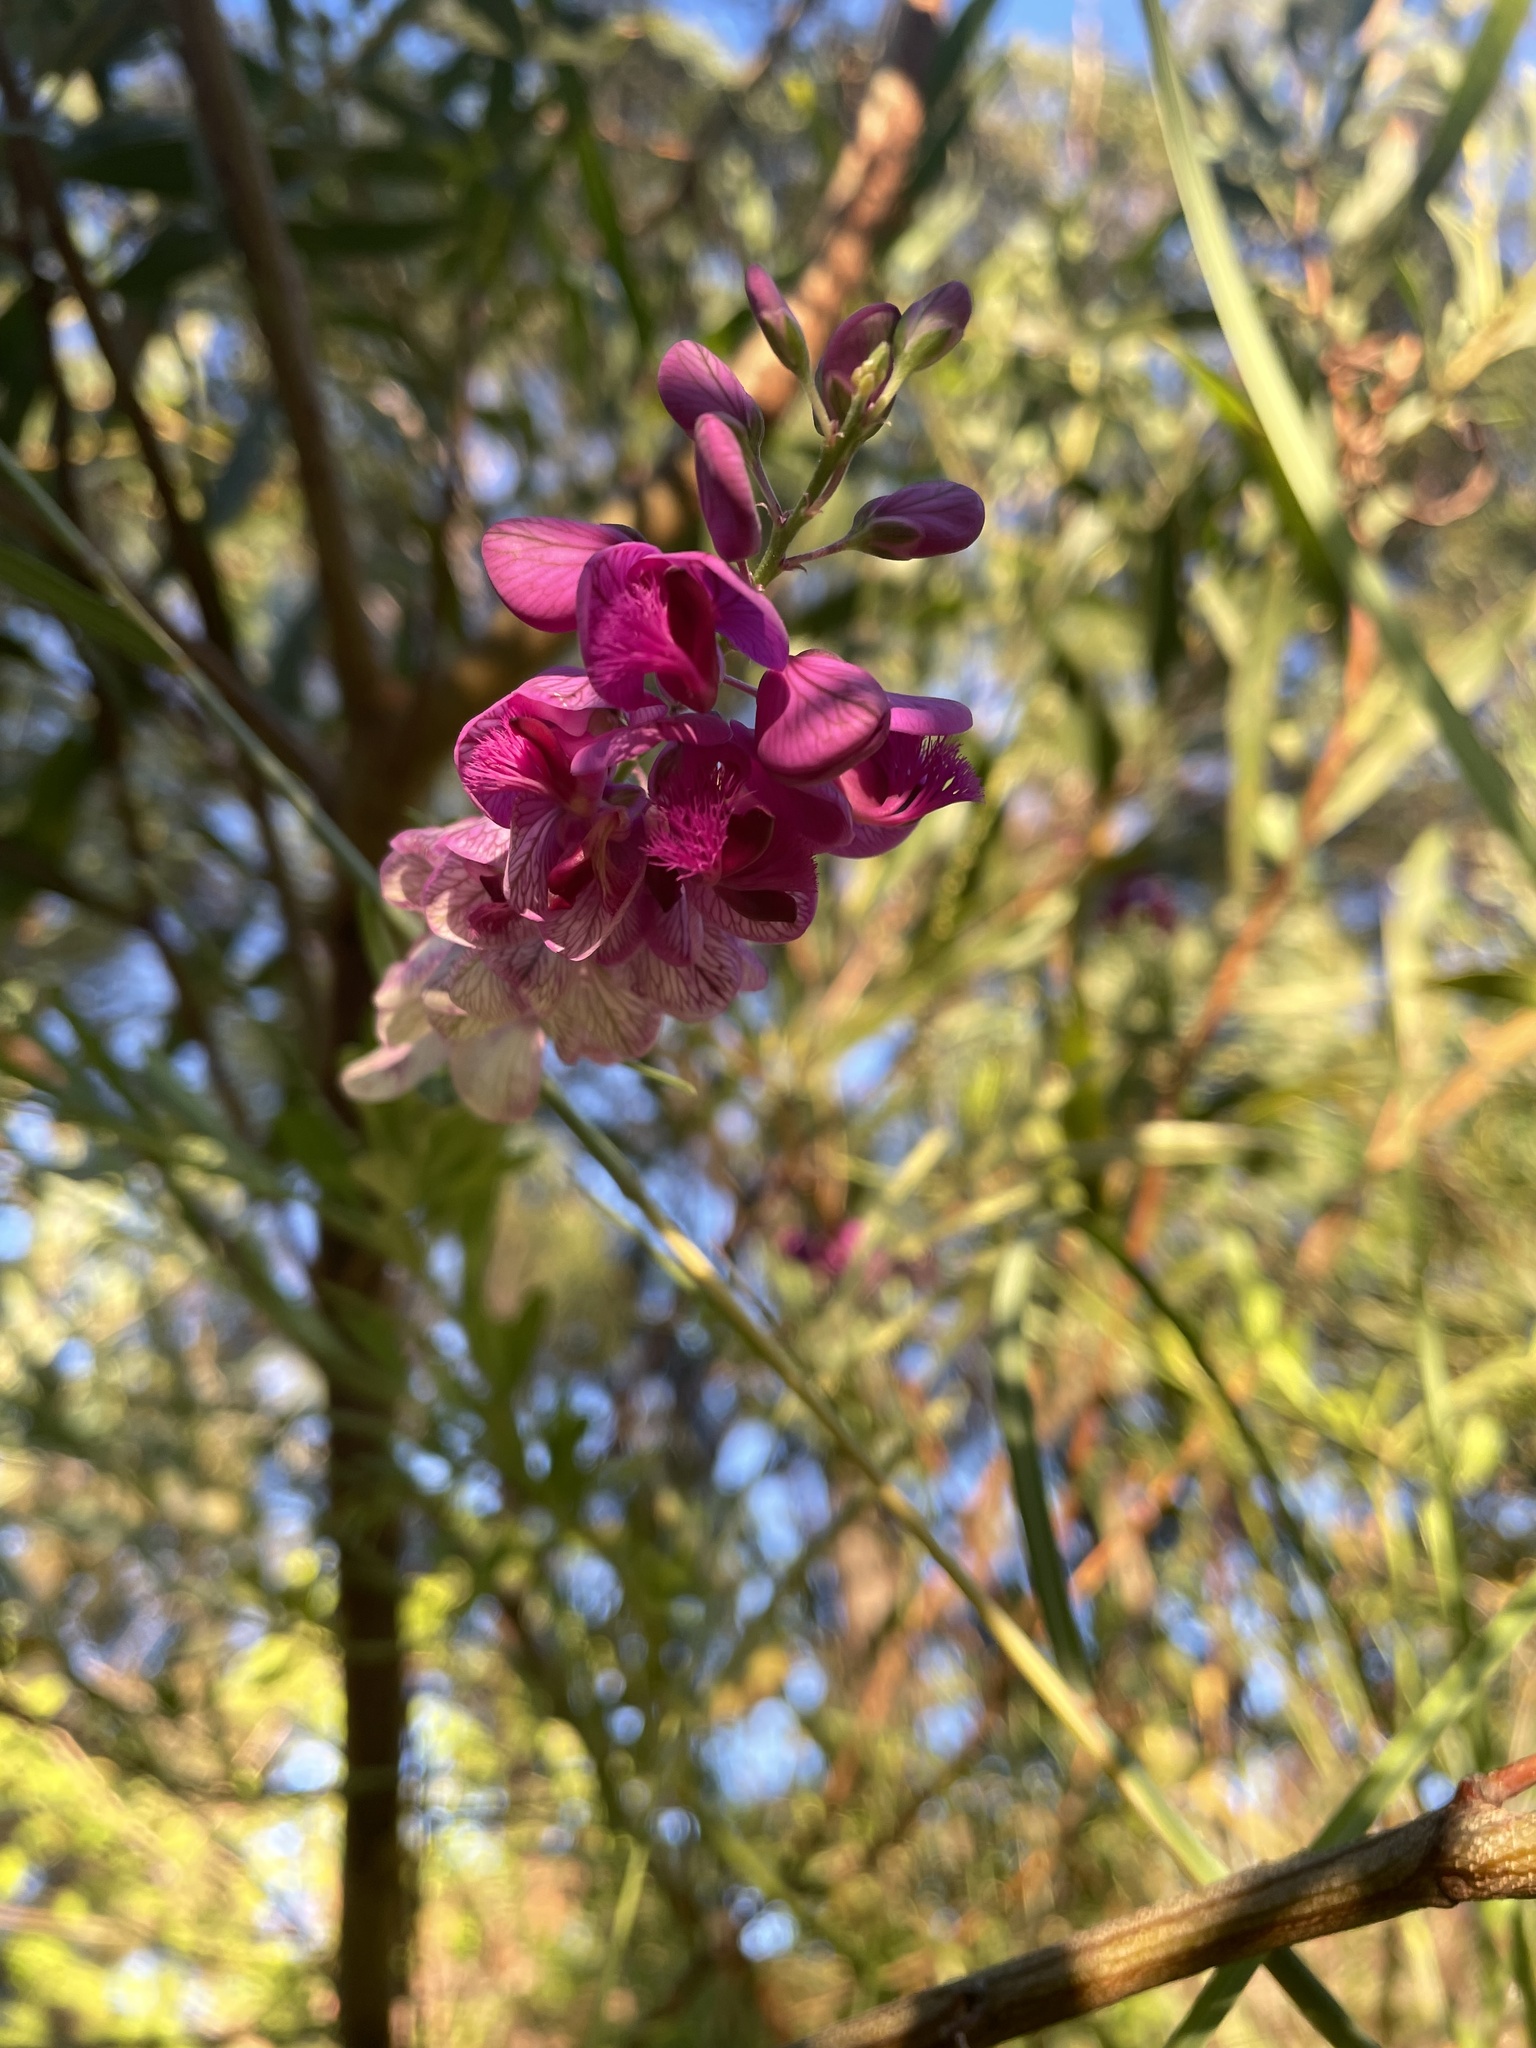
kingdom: Plantae
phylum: Tracheophyta
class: Magnoliopsida
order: Fabales
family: Polygalaceae
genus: Polygala
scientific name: Polygala virgata
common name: Milkwort
